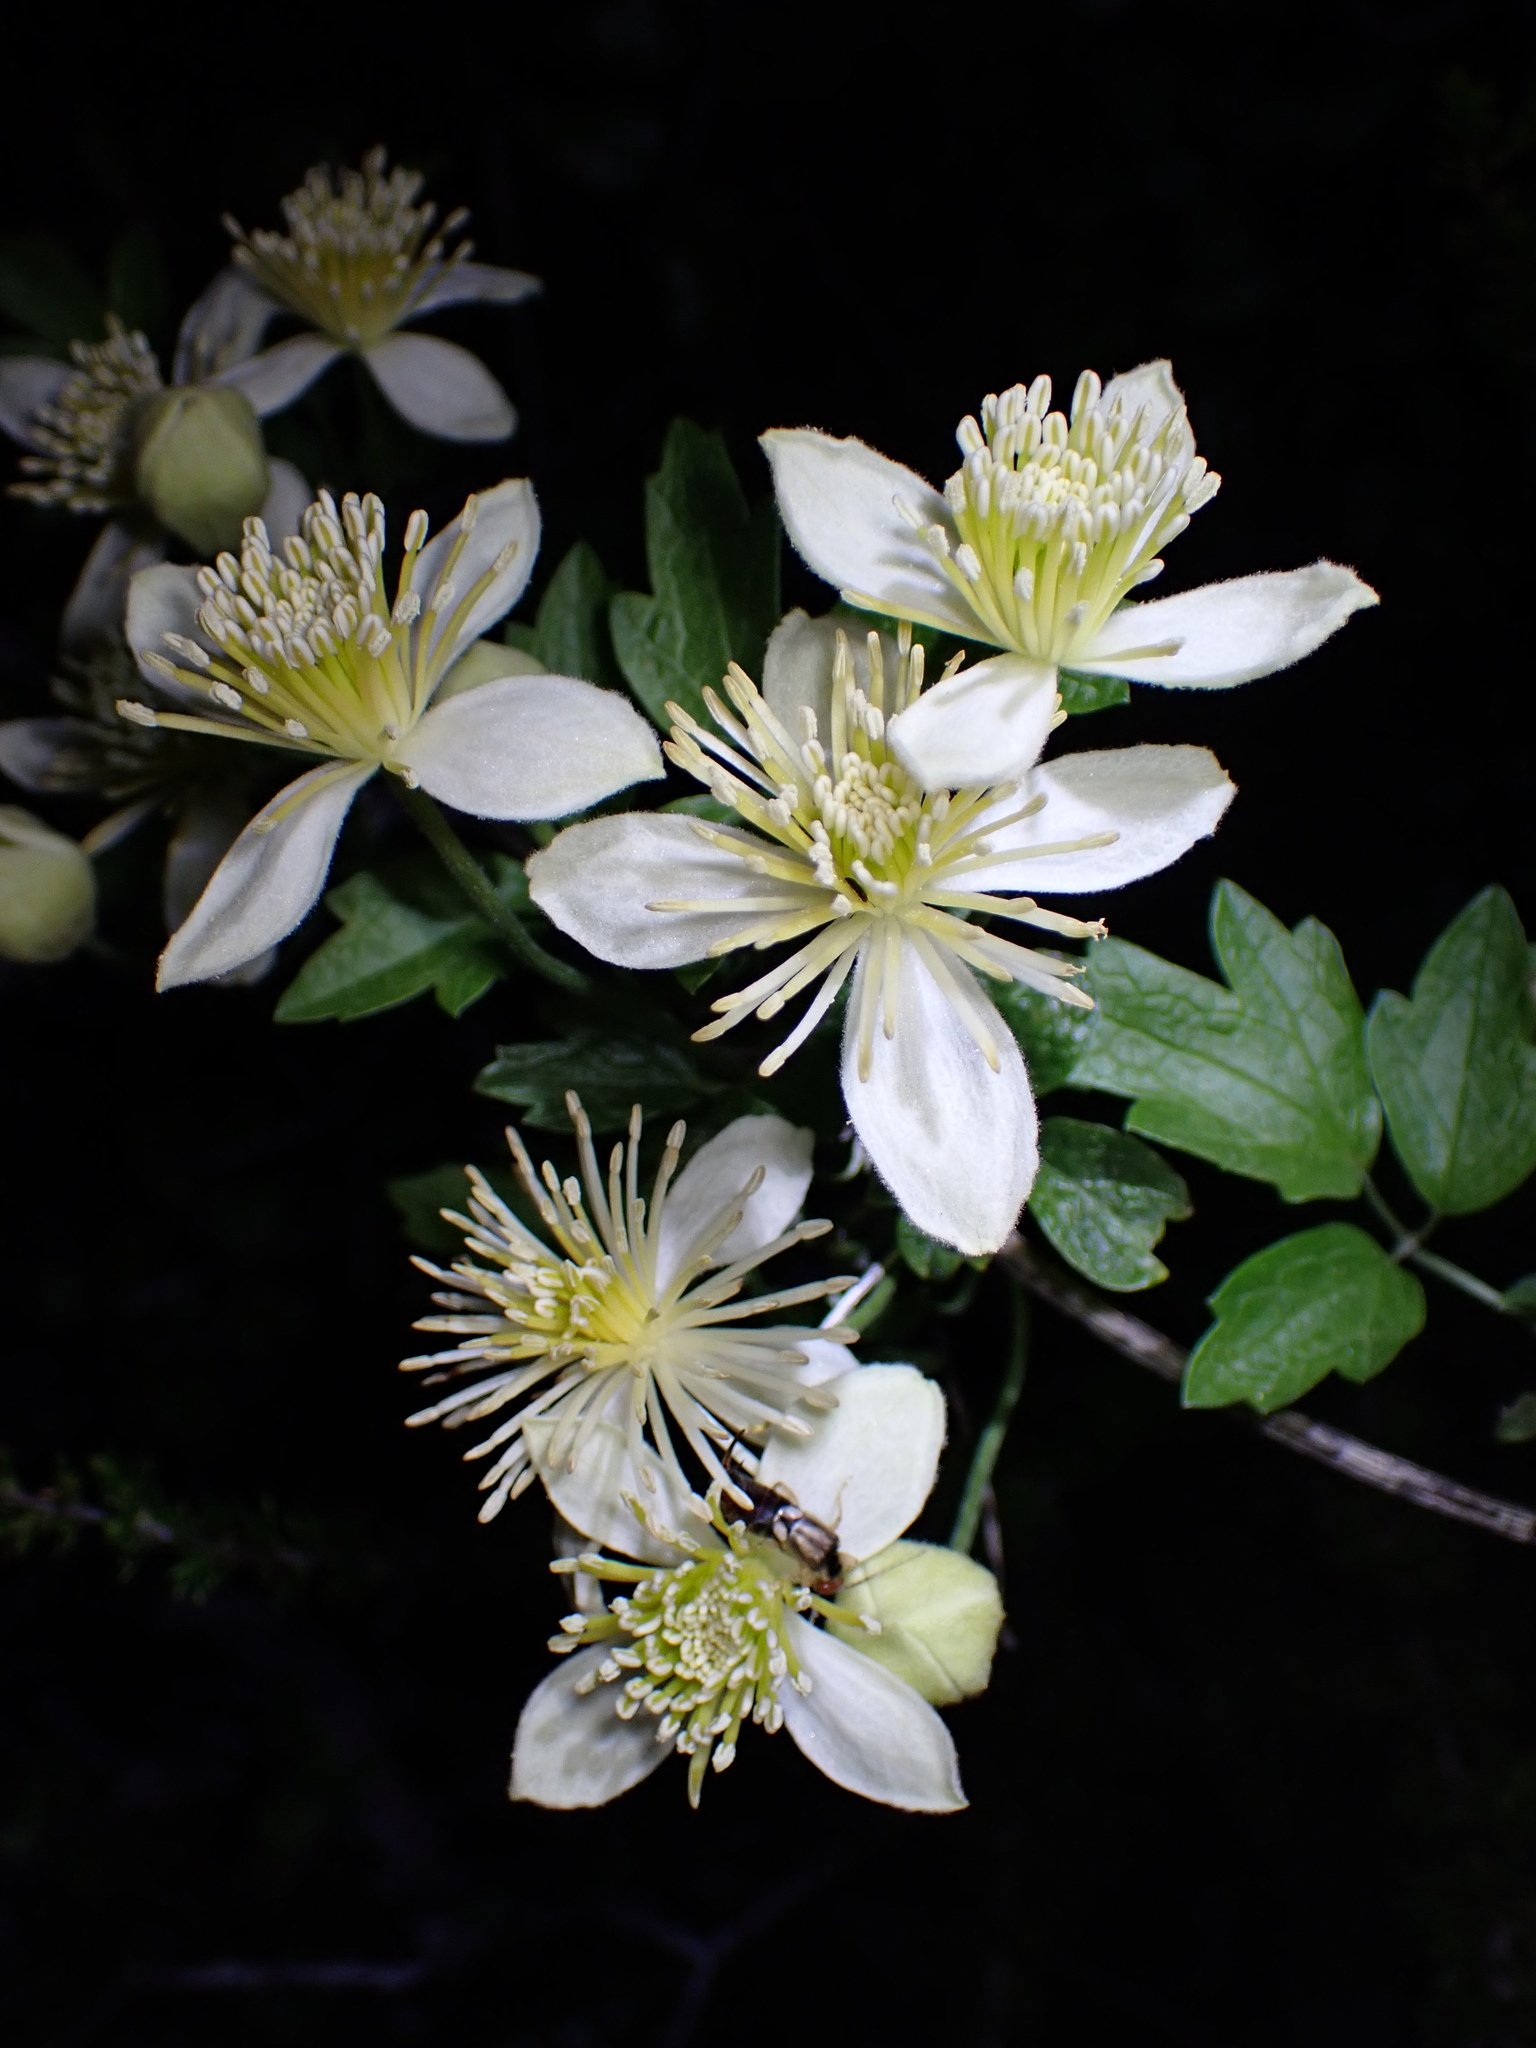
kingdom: Plantae
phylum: Tracheophyta
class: Magnoliopsida
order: Ranunculales
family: Ranunculaceae
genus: Clematis
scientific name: Clematis lasiantha
